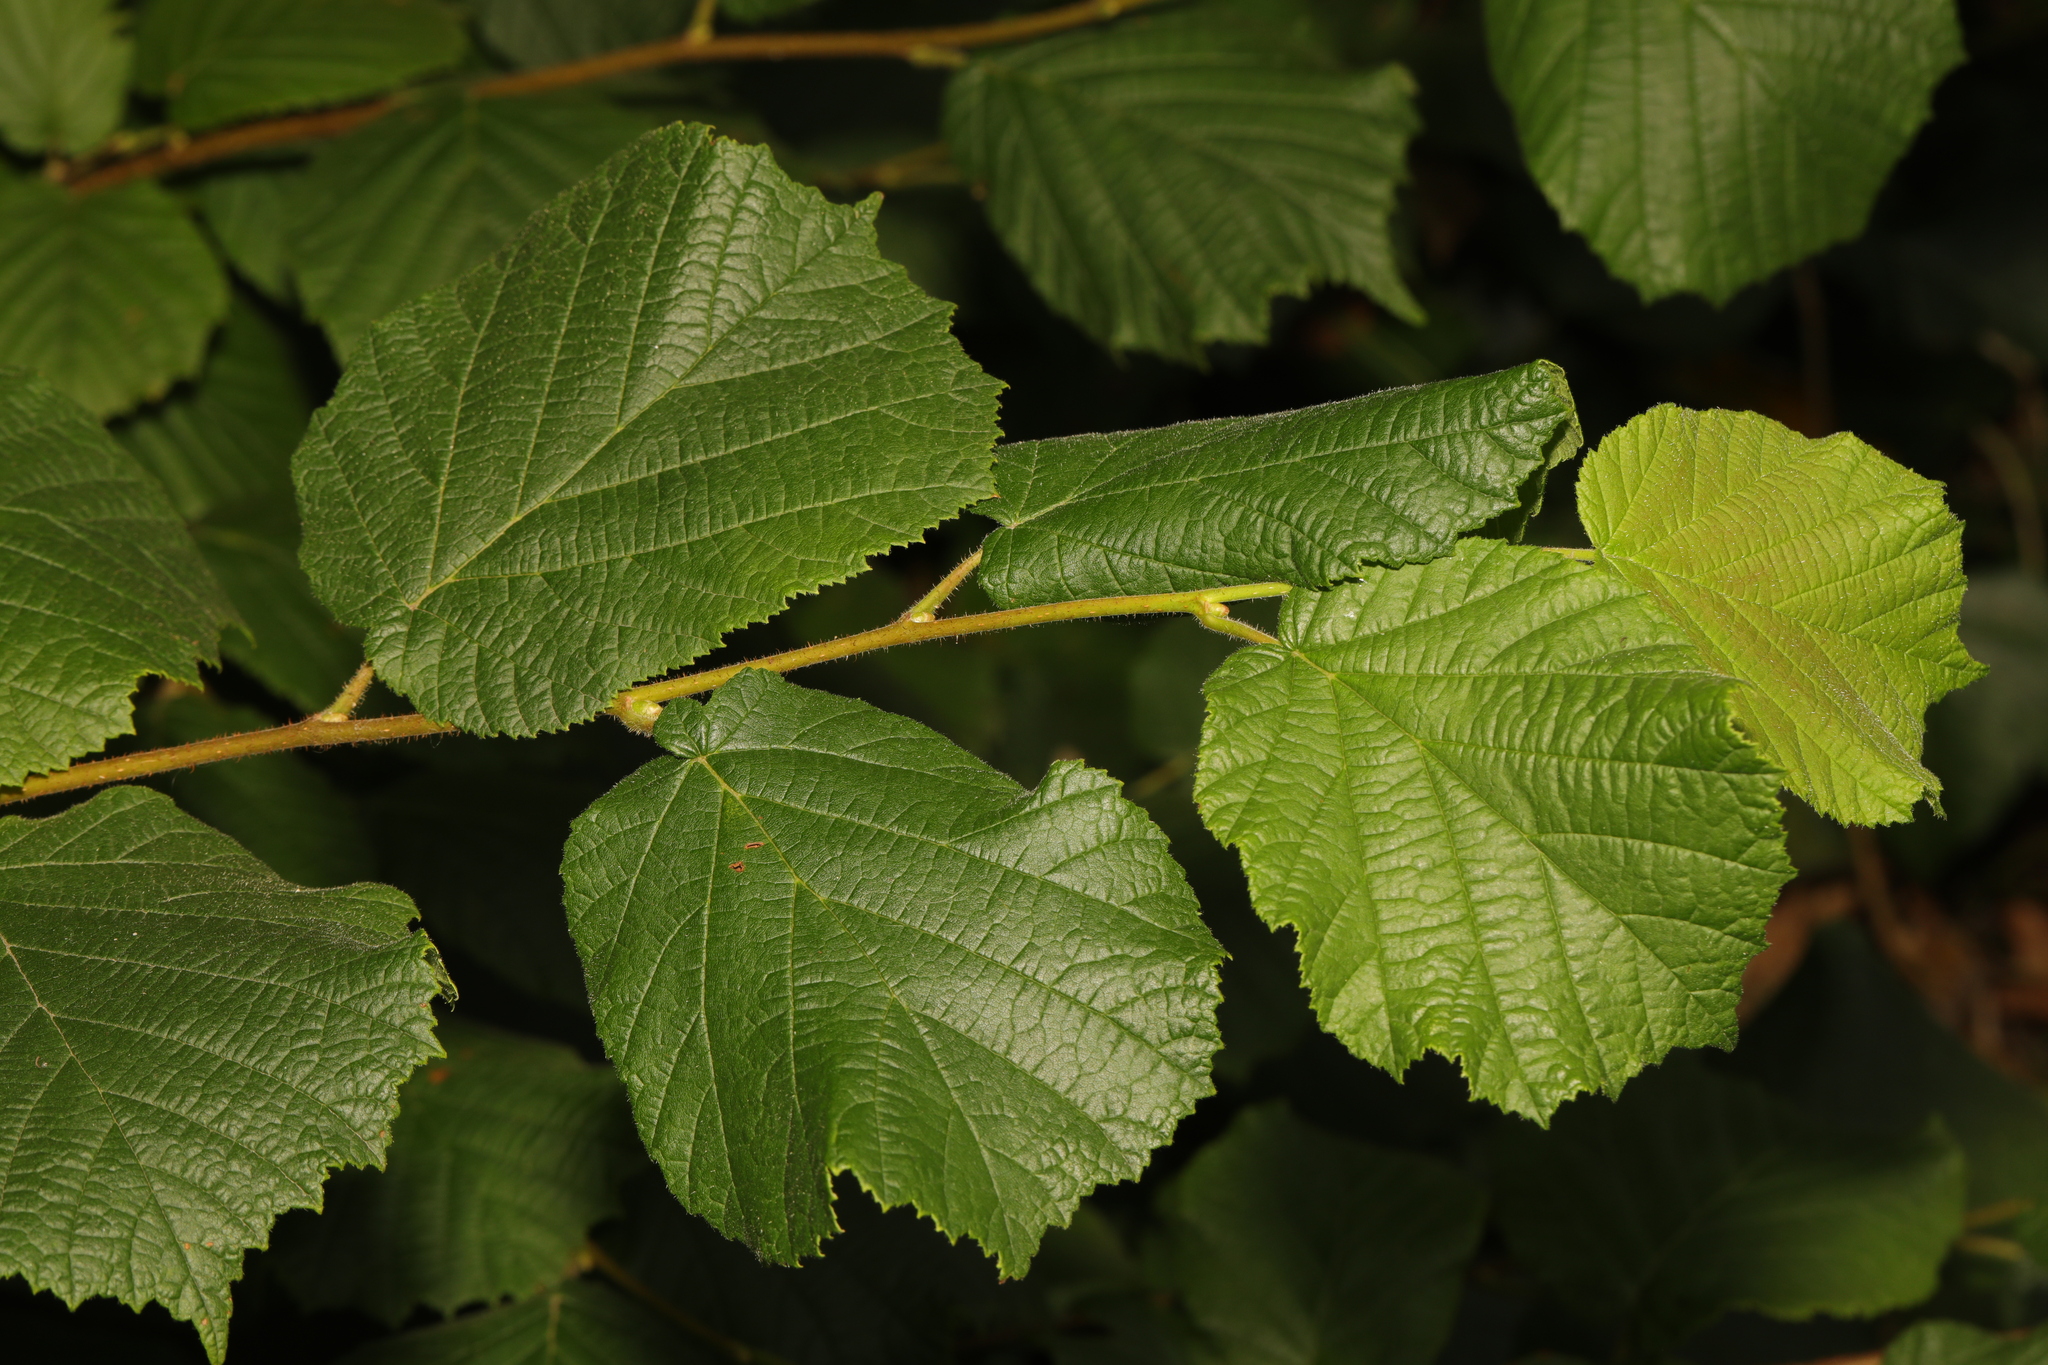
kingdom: Plantae
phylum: Tracheophyta
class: Magnoliopsida
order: Fagales
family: Betulaceae
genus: Corylus
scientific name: Corylus avellana
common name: European hazel
